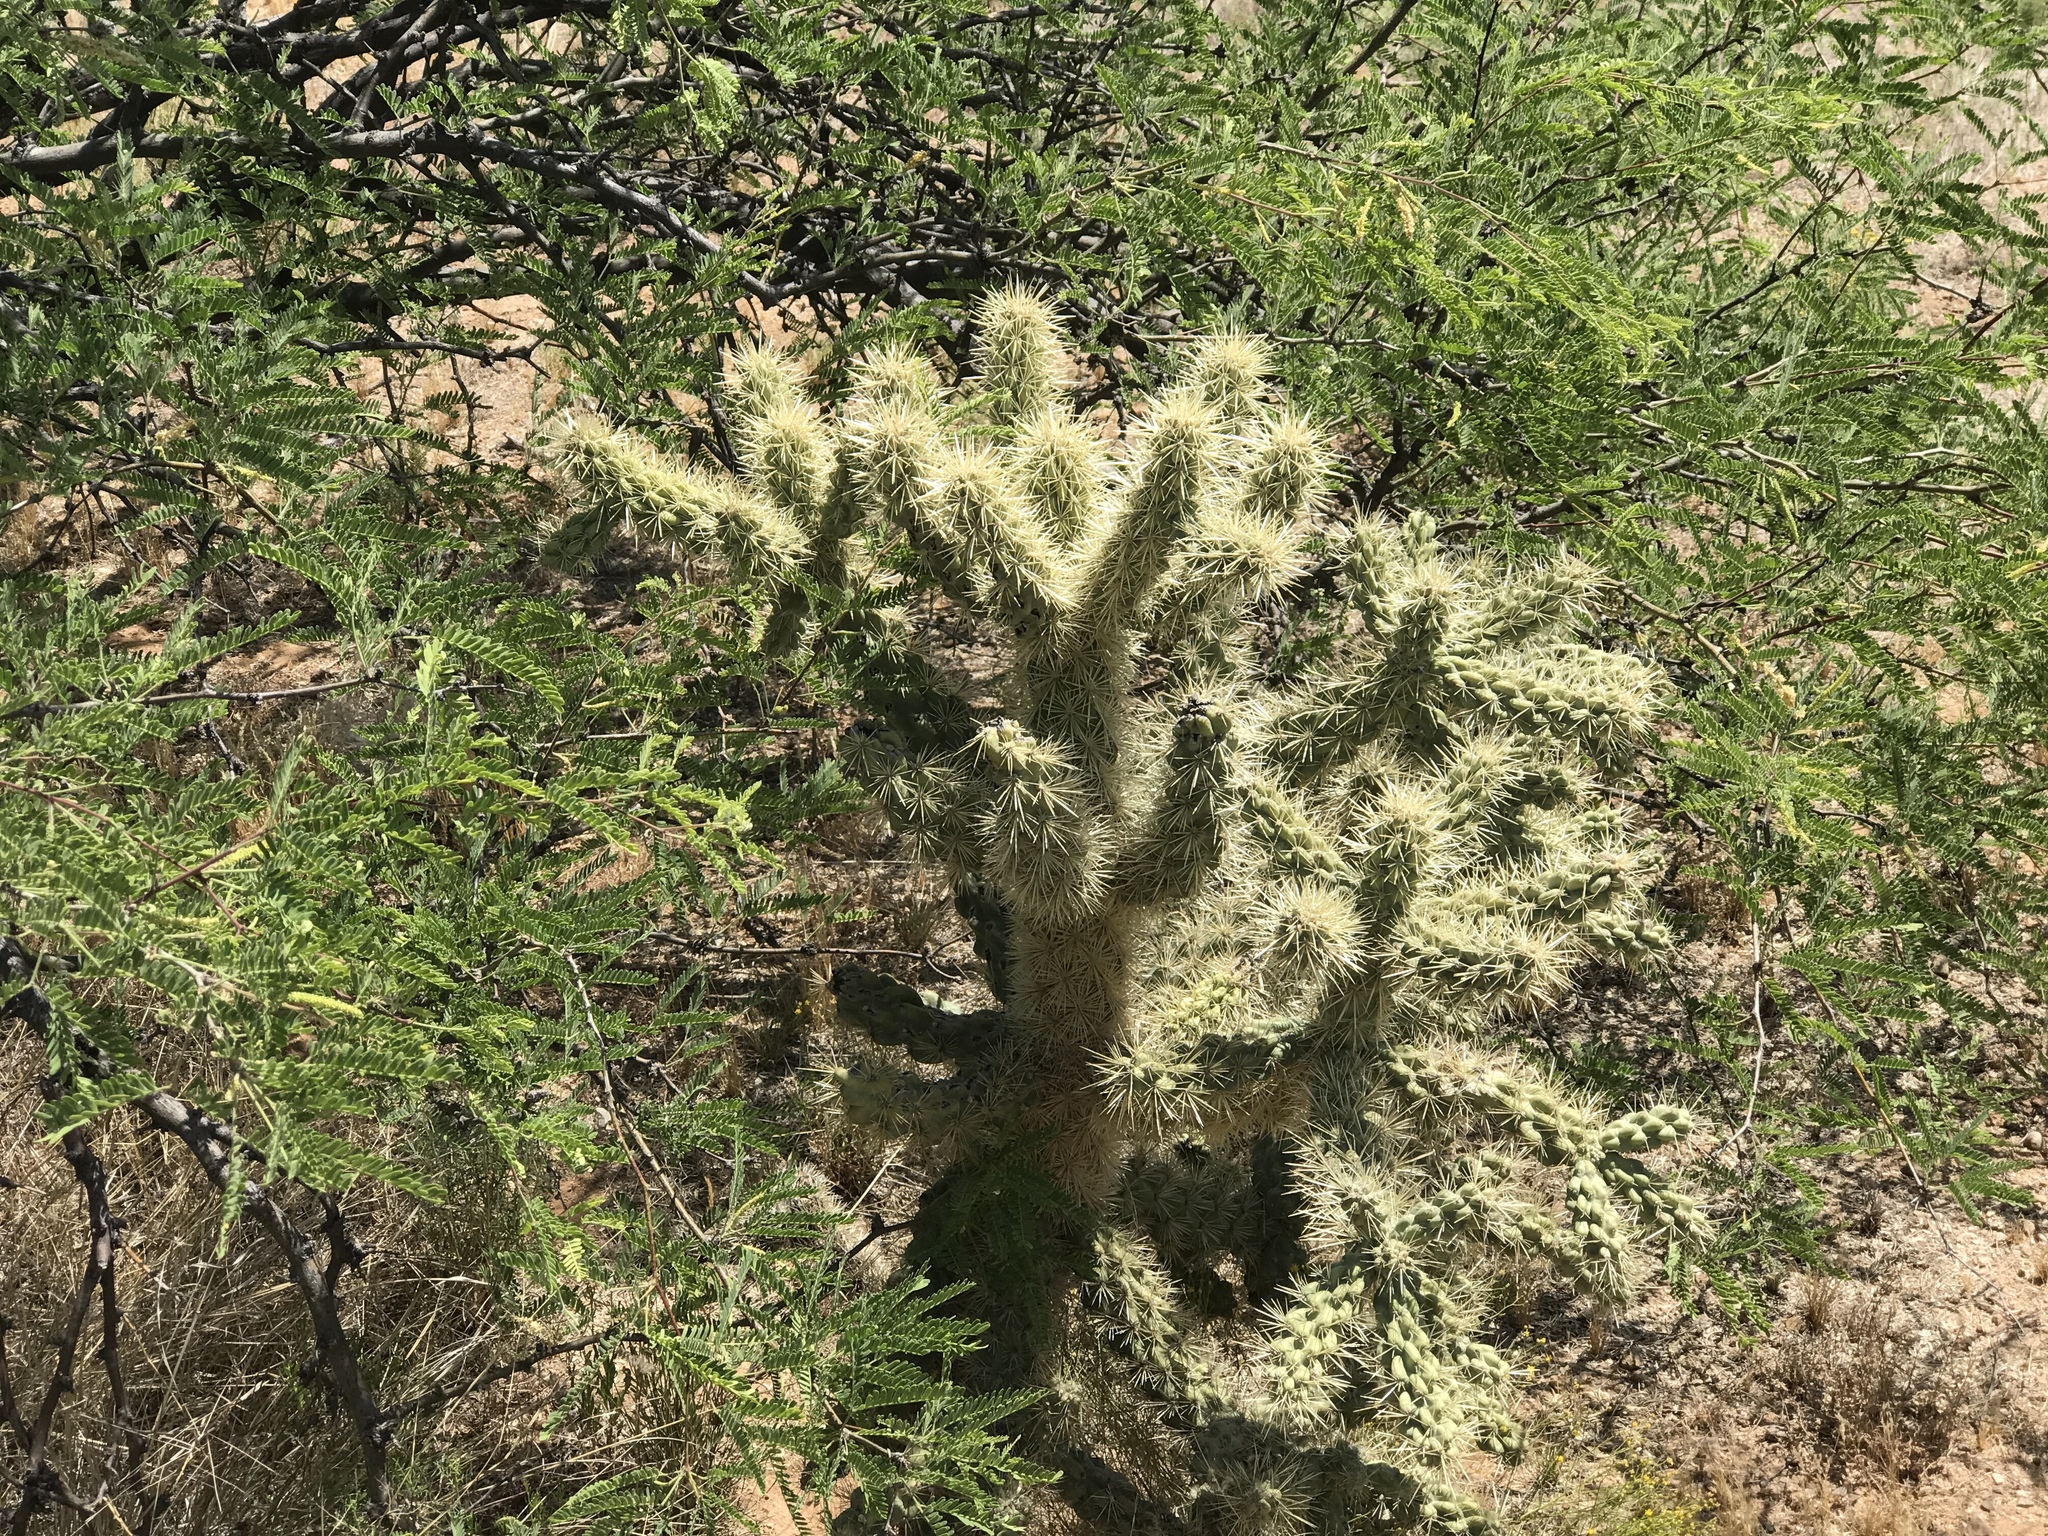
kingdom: Plantae
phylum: Tracheophyta
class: Magnoliopsida
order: Caryophyllales
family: Cactaceae
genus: Cylindropuntia
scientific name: Cylindropuntia fulgida
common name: Jumping cholla
